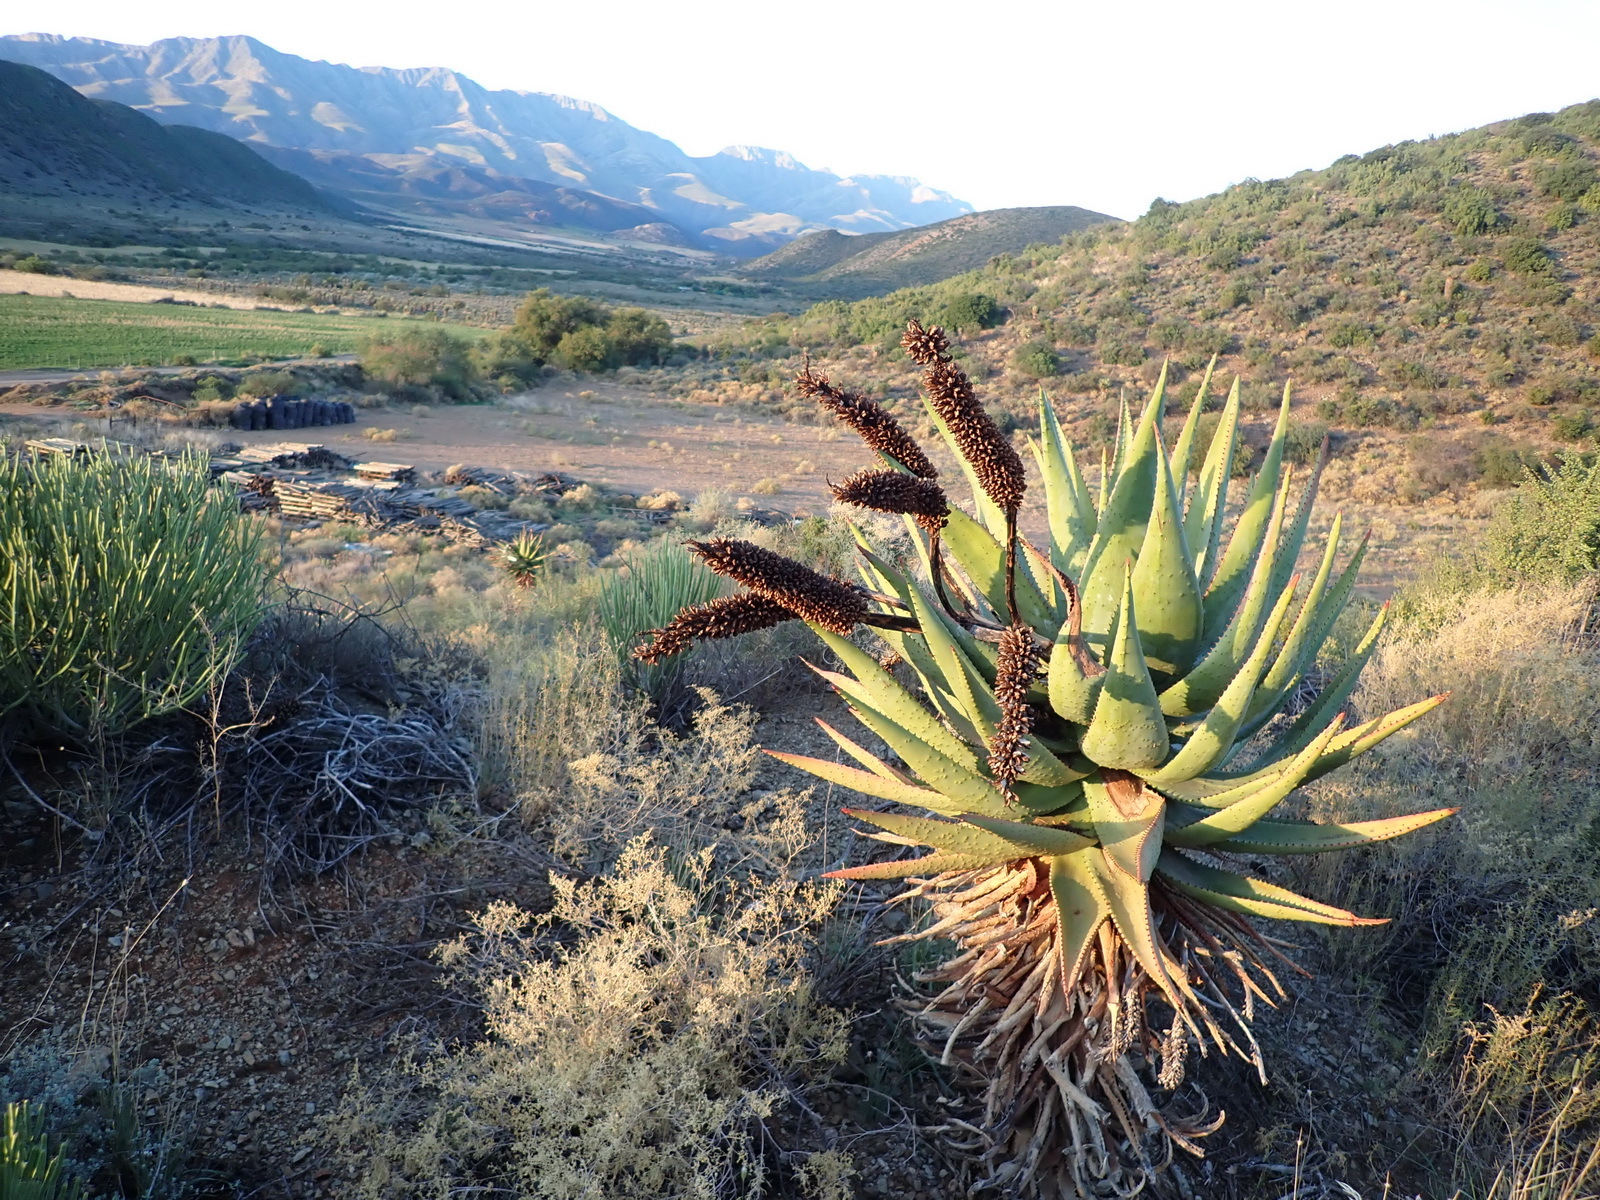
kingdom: Plantae
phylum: Tracheophyta
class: Liliopsida
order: Asparagales
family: Asphodelaceae
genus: Aloe
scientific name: Aloe ferox
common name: Bitter aloe
